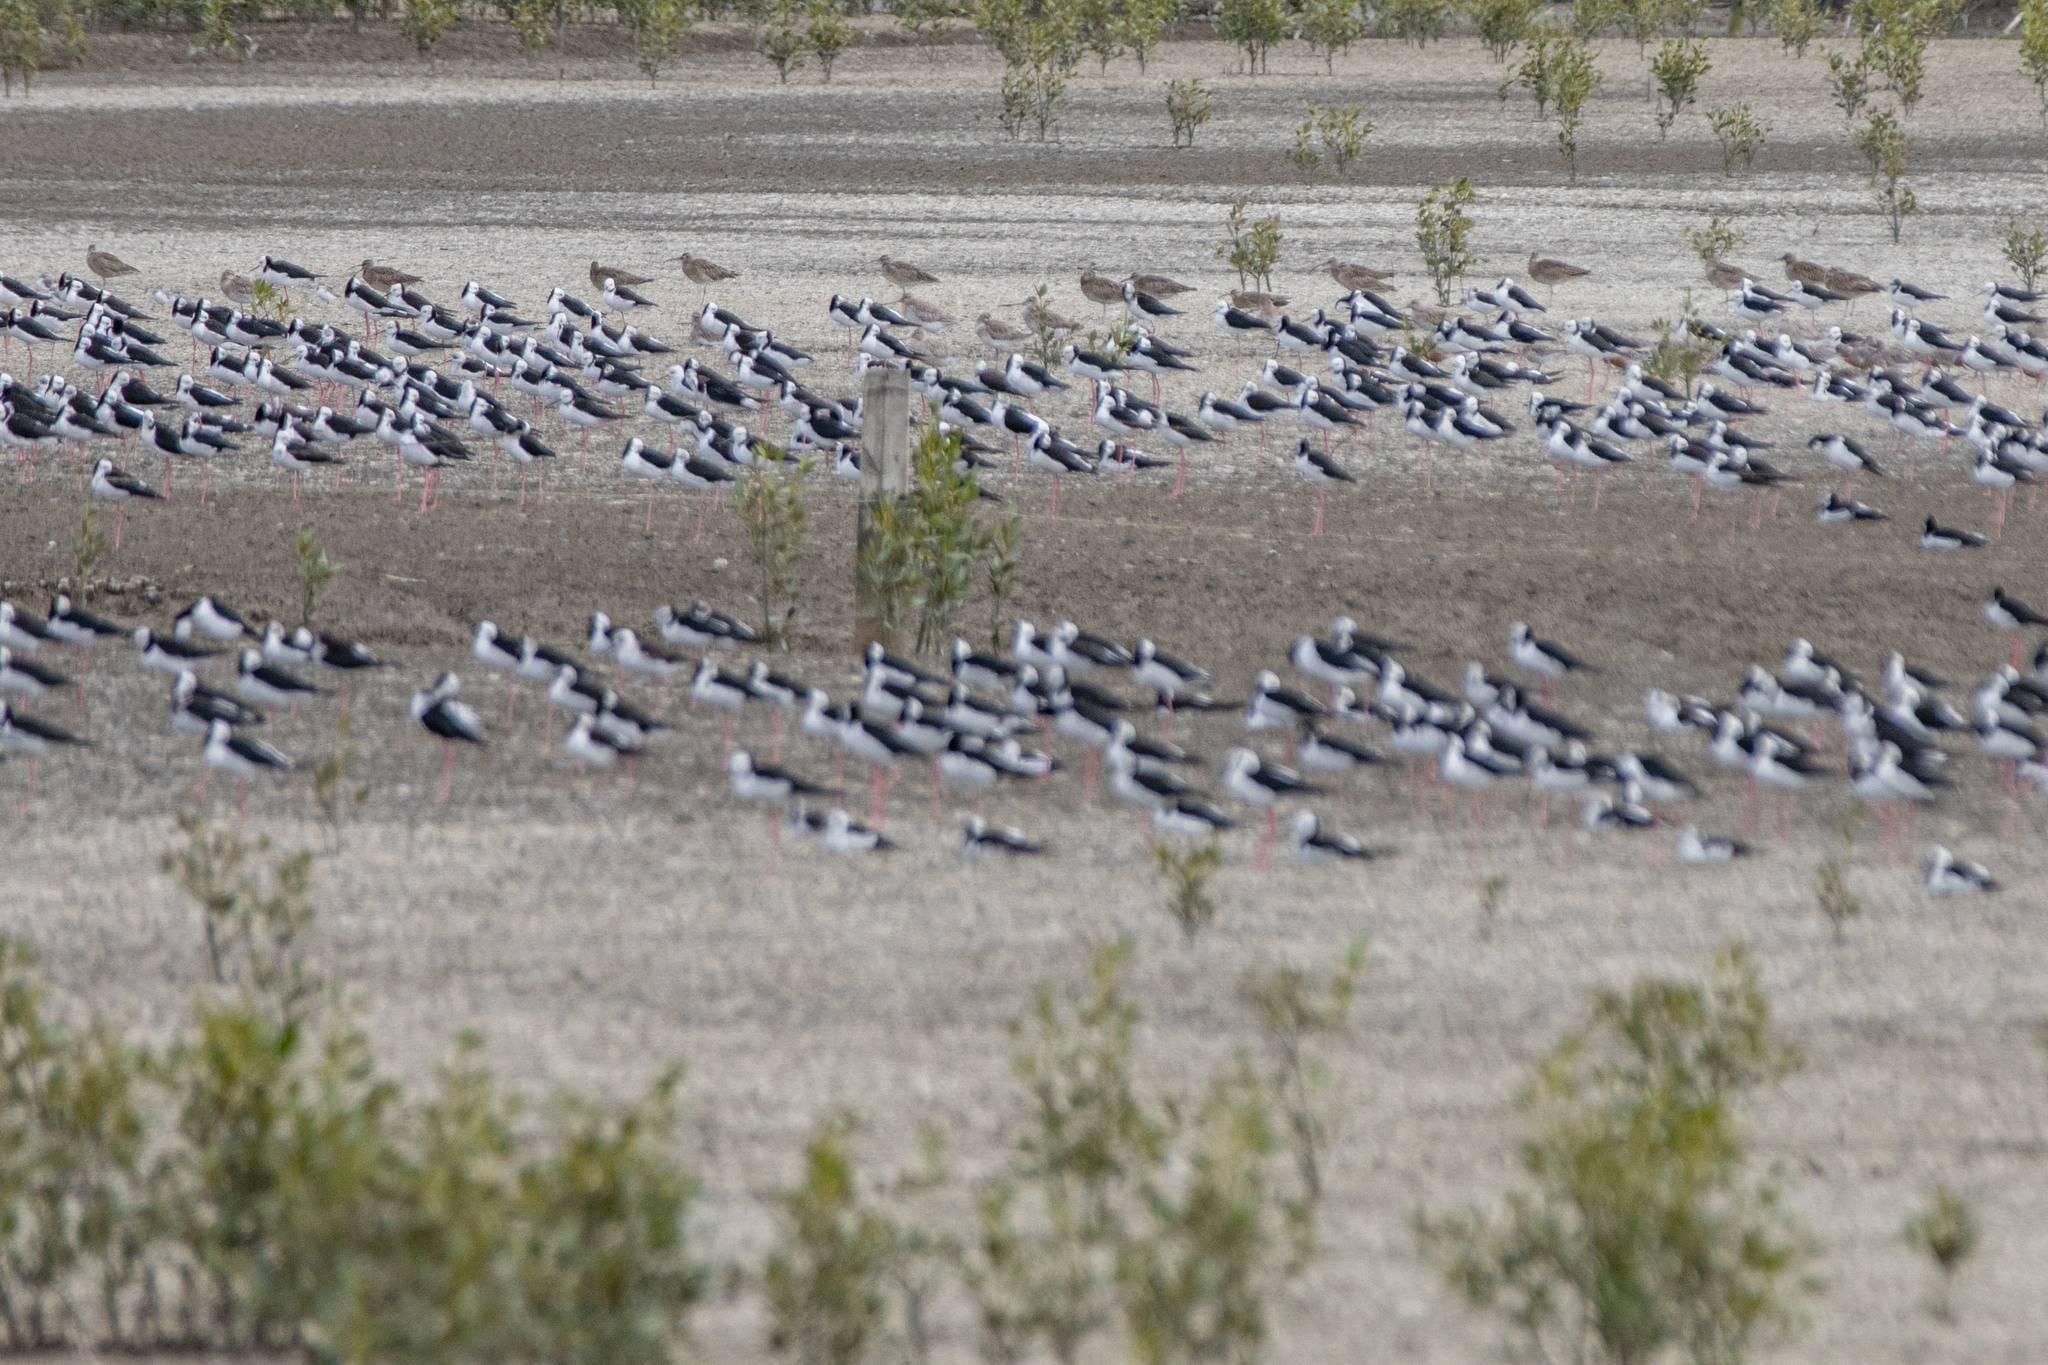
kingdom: Animalia
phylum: Chordata
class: Aves
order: Charadriiformes
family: Scolopacidae
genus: Numenius
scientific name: Numenius phaeopus
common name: Whimbrel
